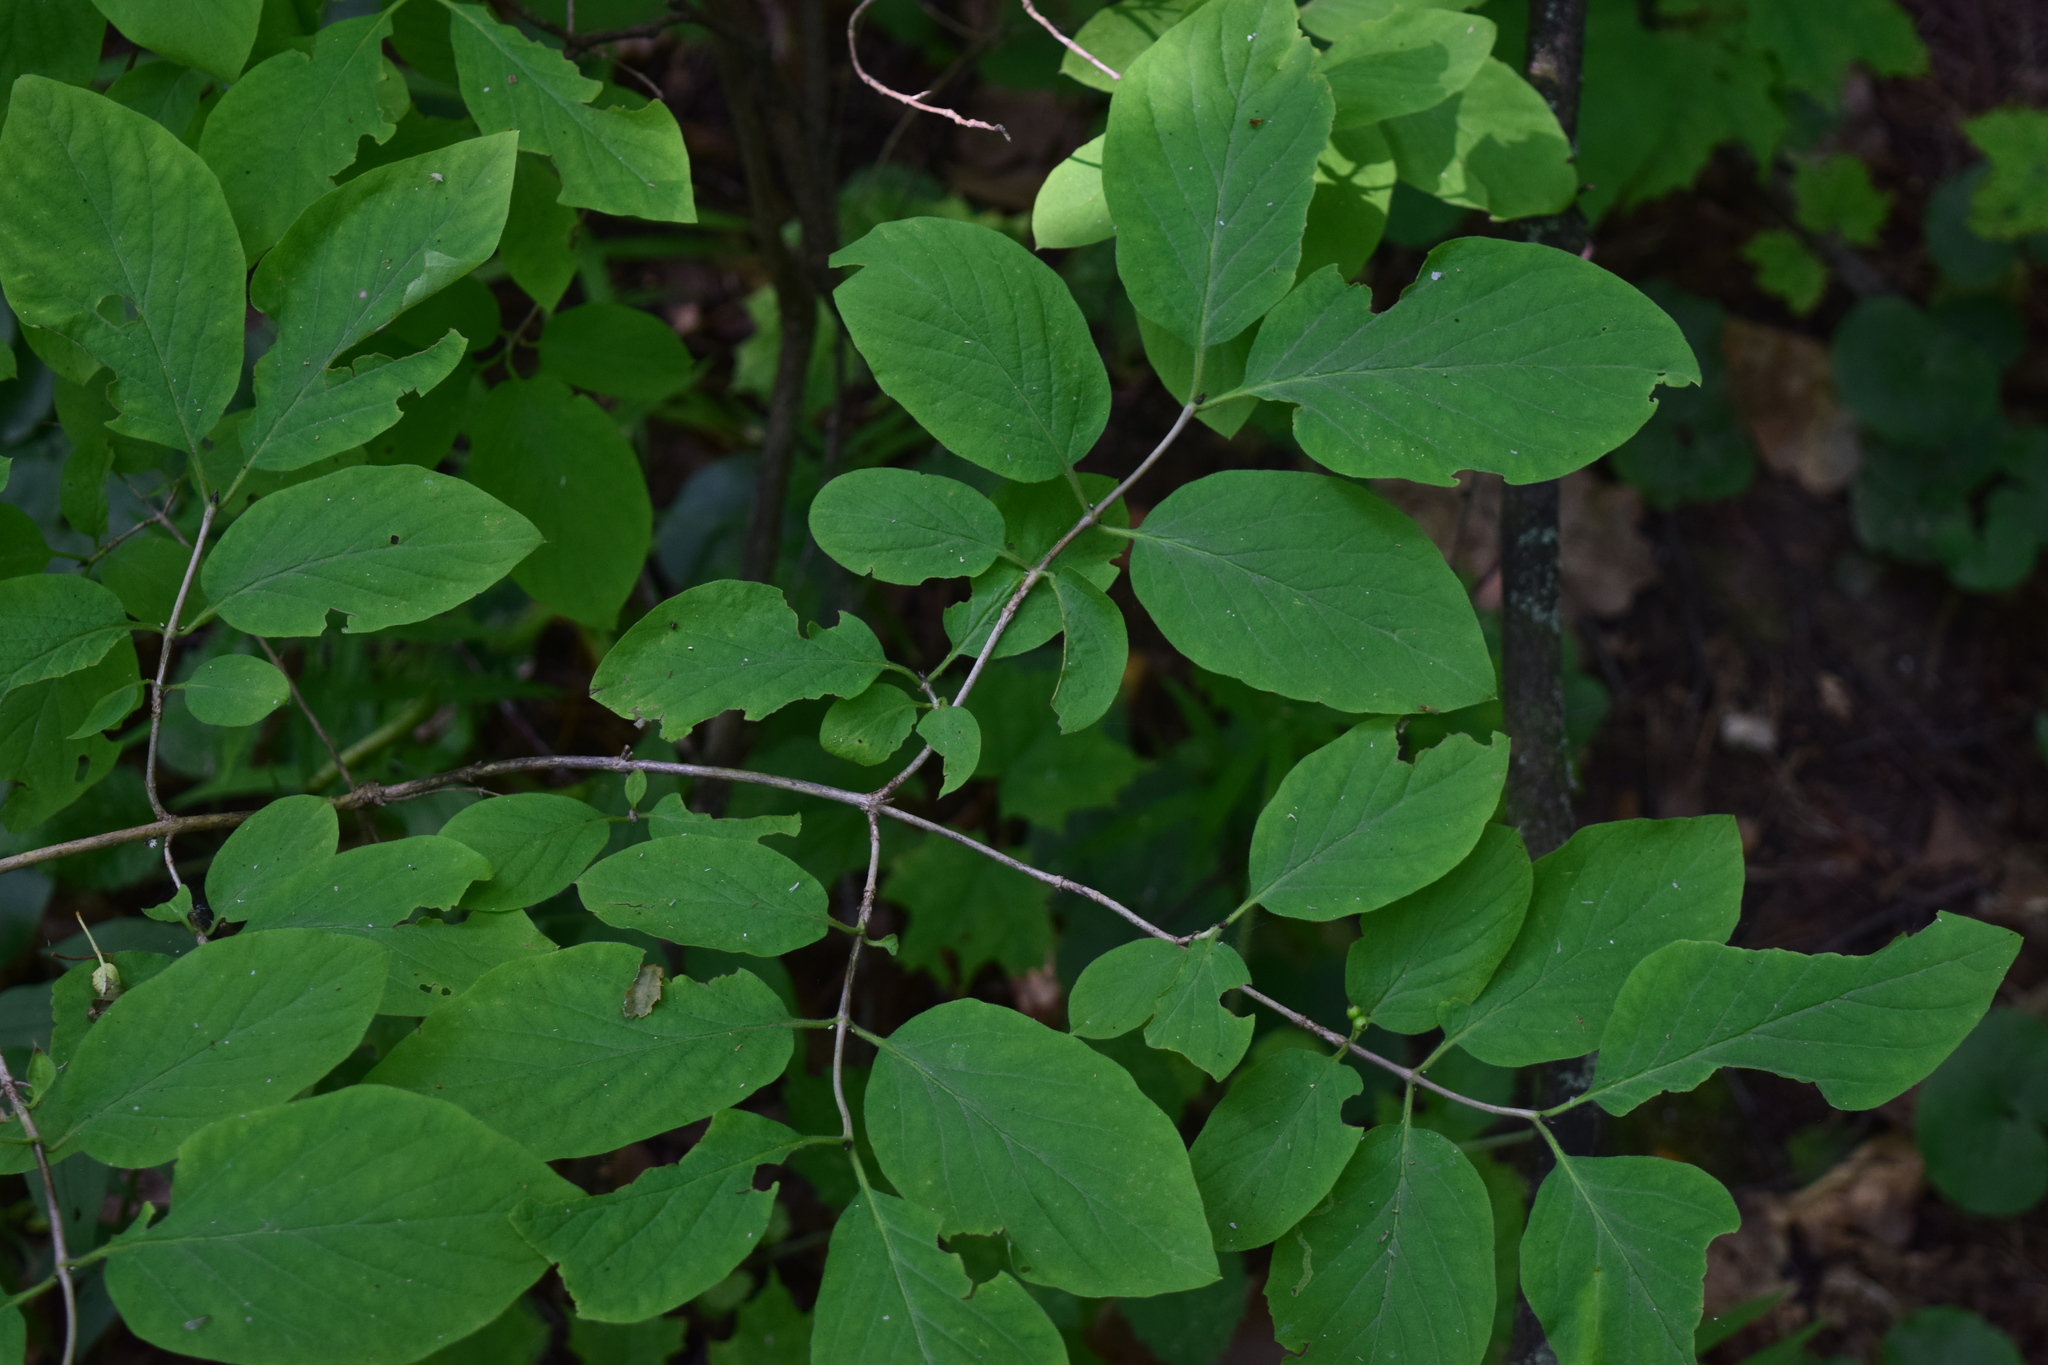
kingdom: Plantae
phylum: Tracheophyta
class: Magnoliopsida
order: Dipsacales
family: Caprifoliaceae
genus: Lonicera
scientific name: Lonicera xylosteum
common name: Fly honeysuckle
